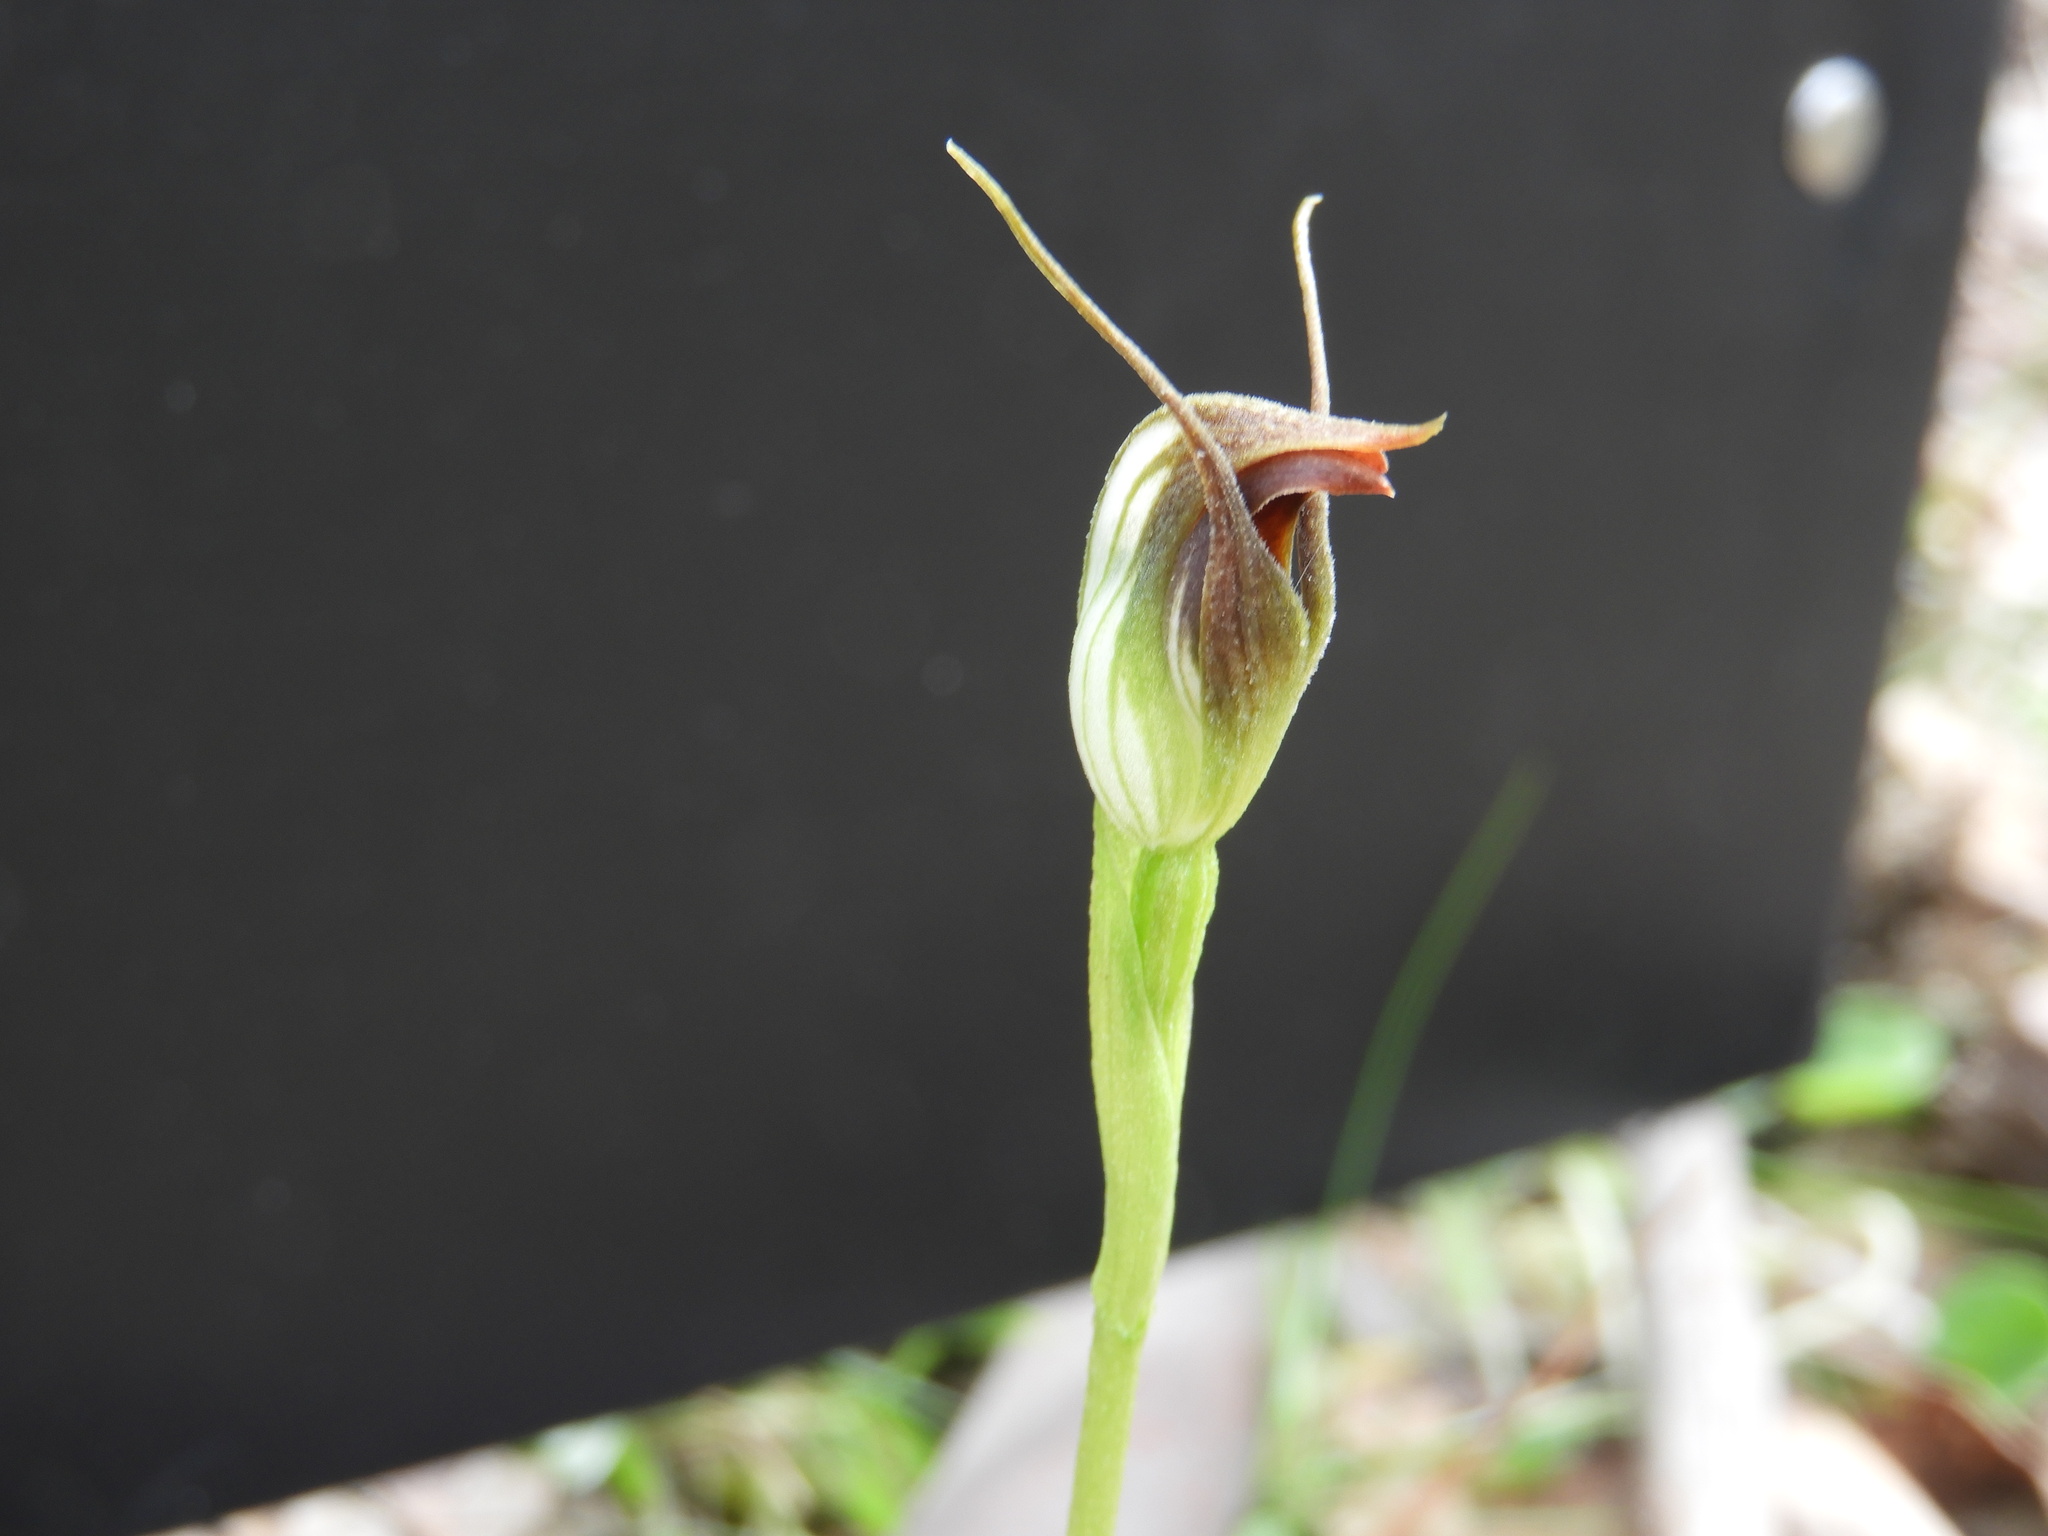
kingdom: Plantae
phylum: Tracheophyta
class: Liliopsida
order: Asparagales
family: Orchidaceae
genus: Pterostylis
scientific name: Pterostylis pedunculata
